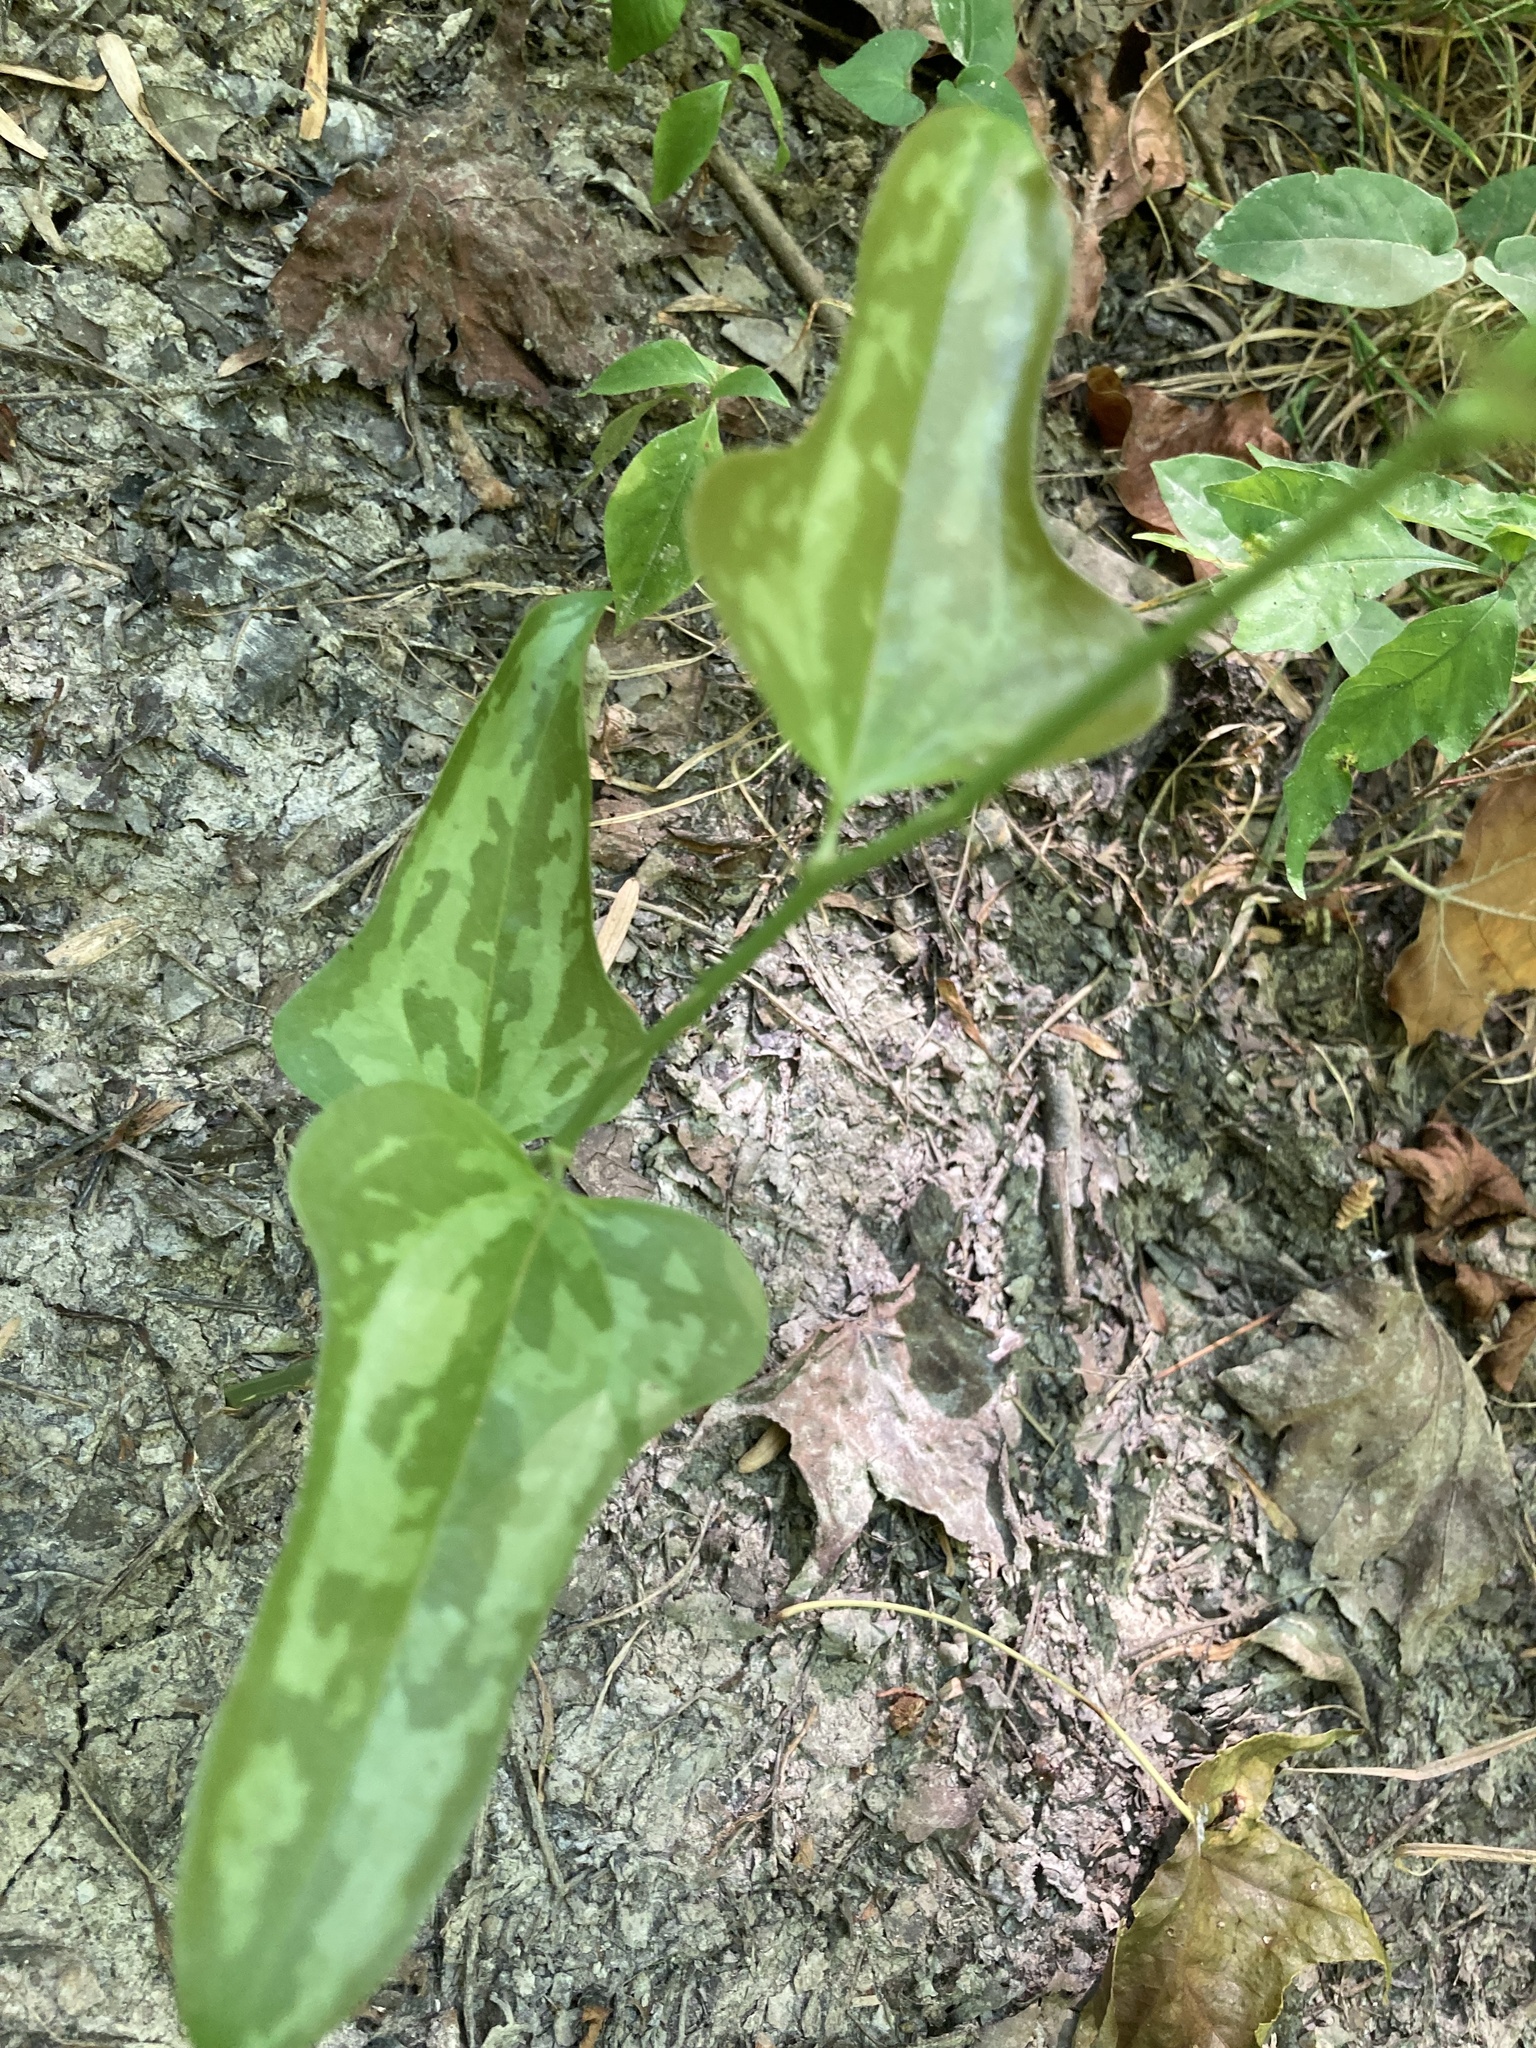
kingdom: Plantae
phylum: Tracheophyta
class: Liliopsida
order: Liliales
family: Smilacaceae
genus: Smilax
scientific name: Smilax bona-nox
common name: Catbrier
